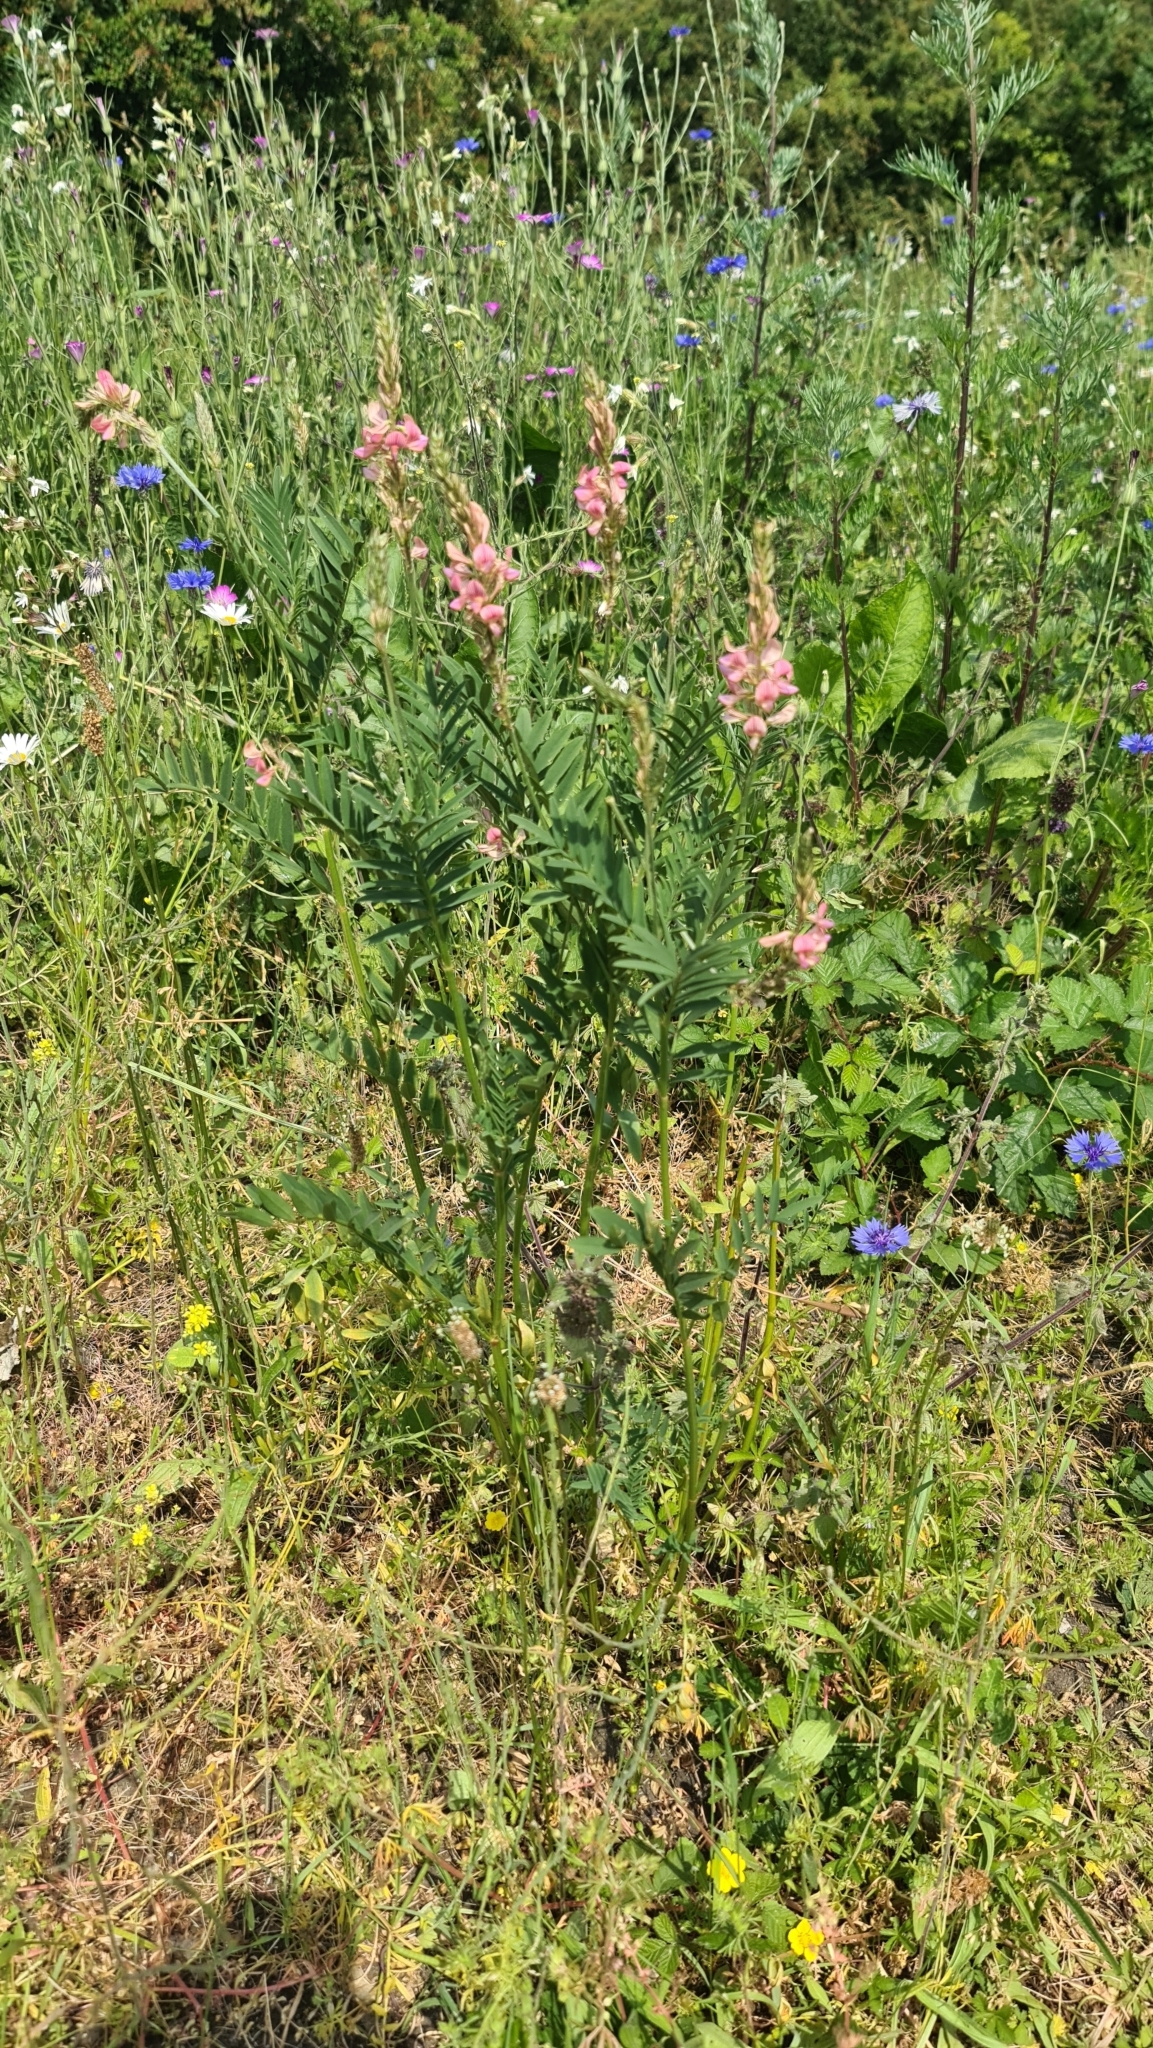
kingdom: Plantae
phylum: Tracheophyta
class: Magnoliopsida
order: Fabales
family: Fabaceae
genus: Onobrychis
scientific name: Onobrychis viciifolia
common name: Sainfoin
